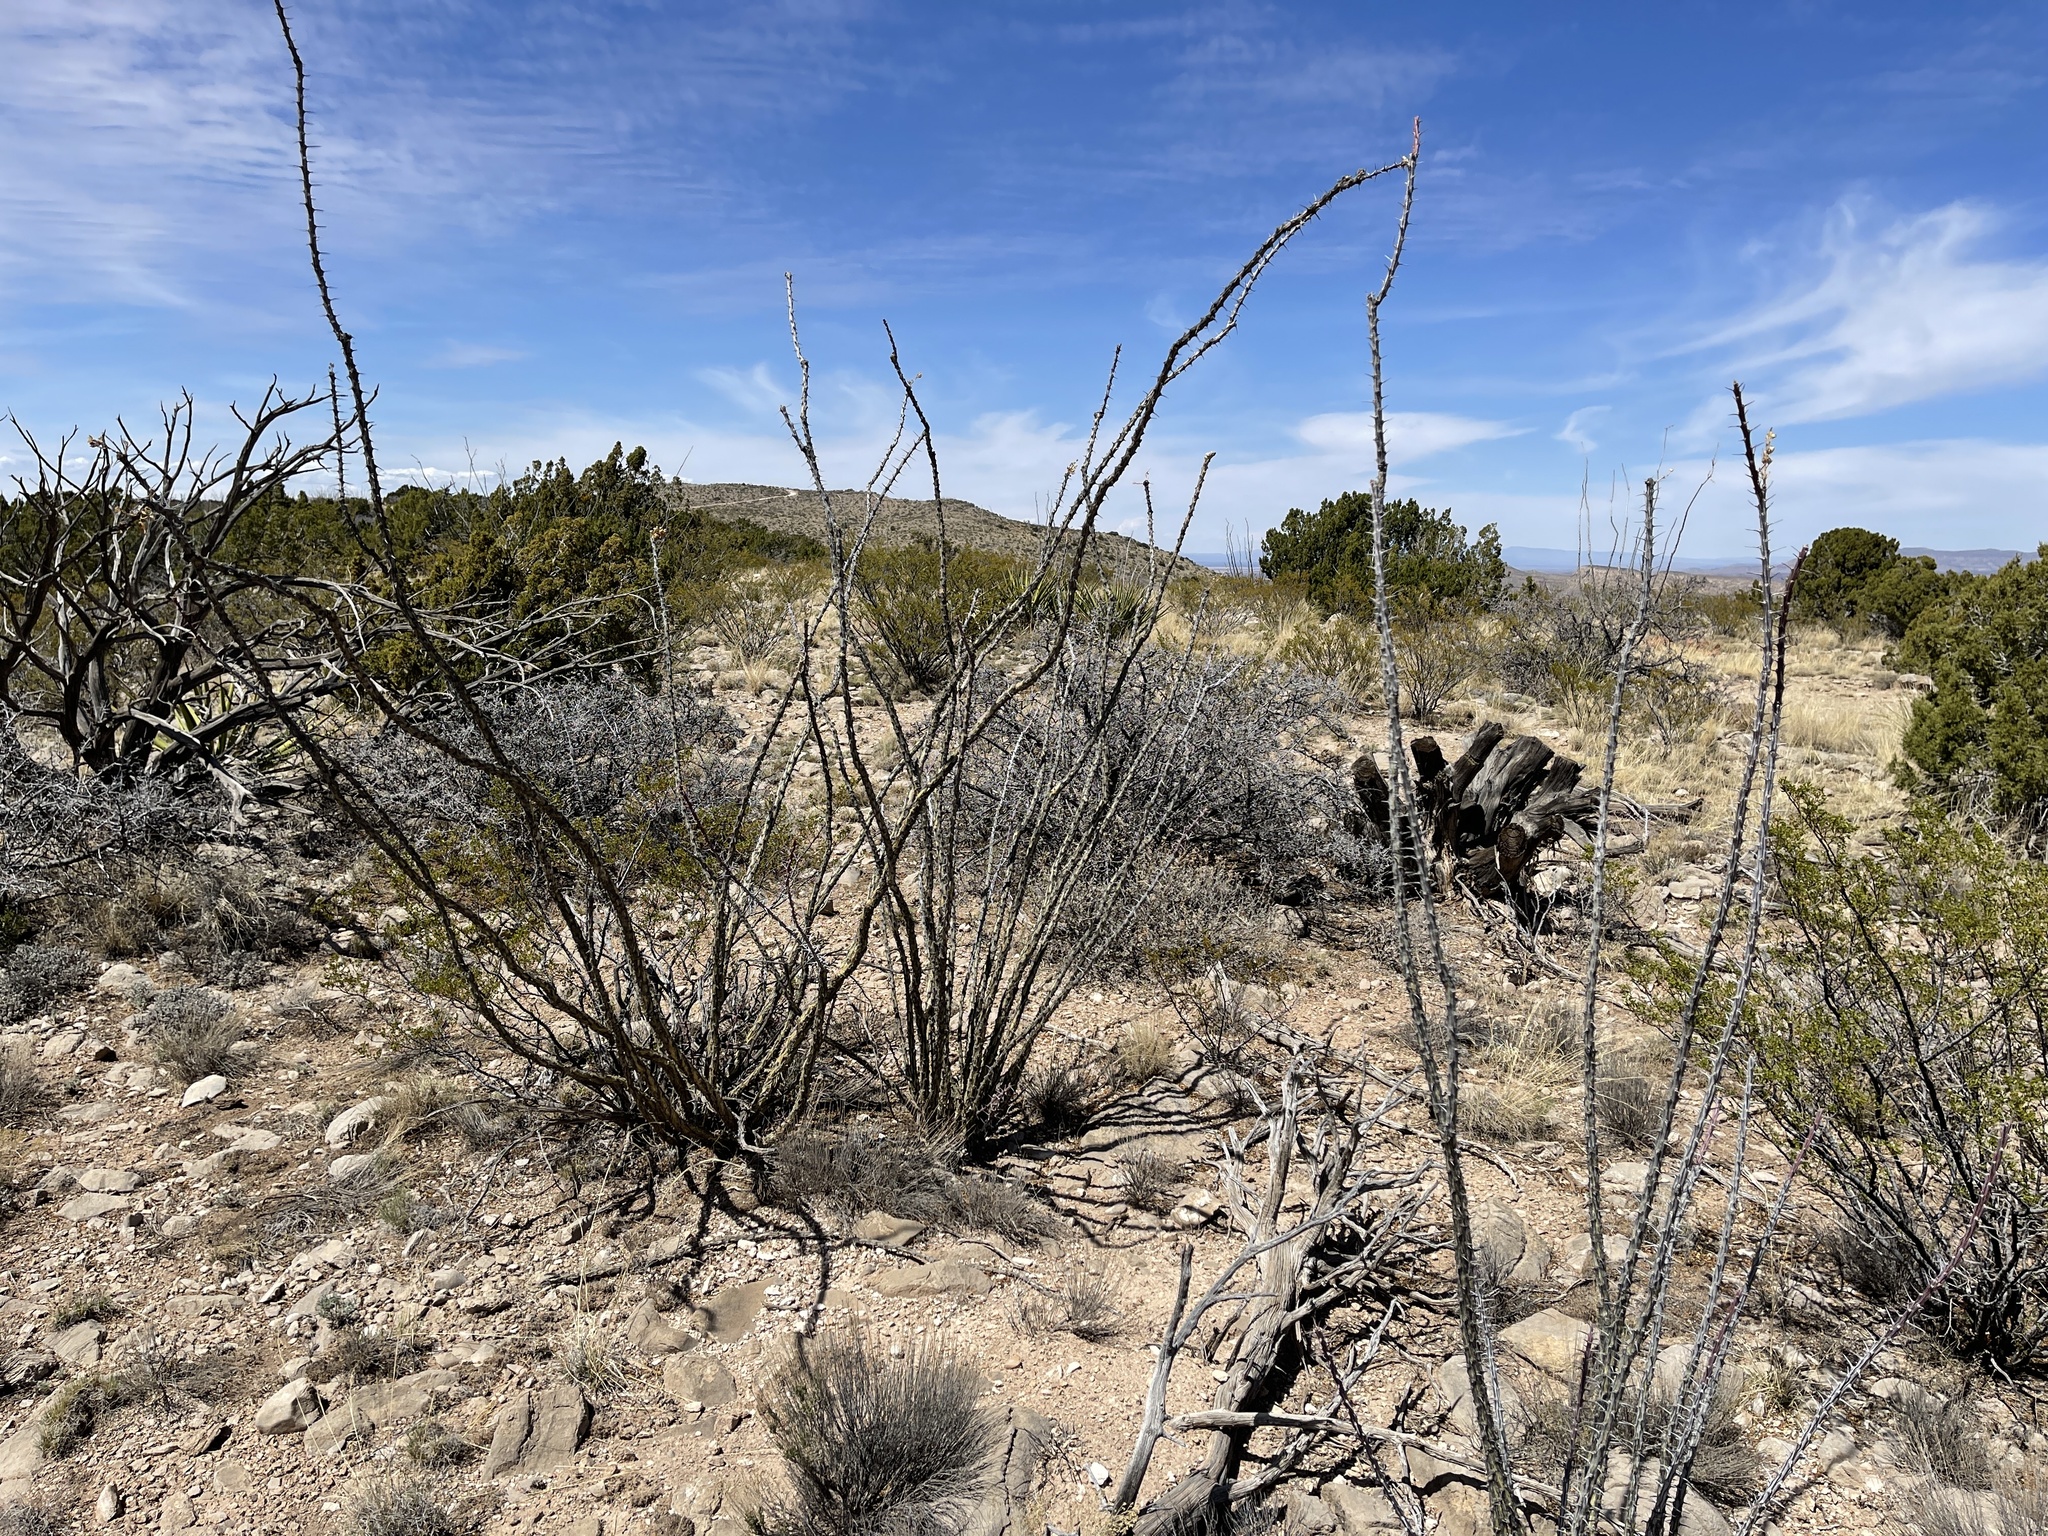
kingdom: Plantae
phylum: Tracheophyta
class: Magnoliopsida
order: Ericales
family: Fouquieriaceae
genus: Fouquieria
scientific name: Fouquieria splendens
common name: Vine-cactus
